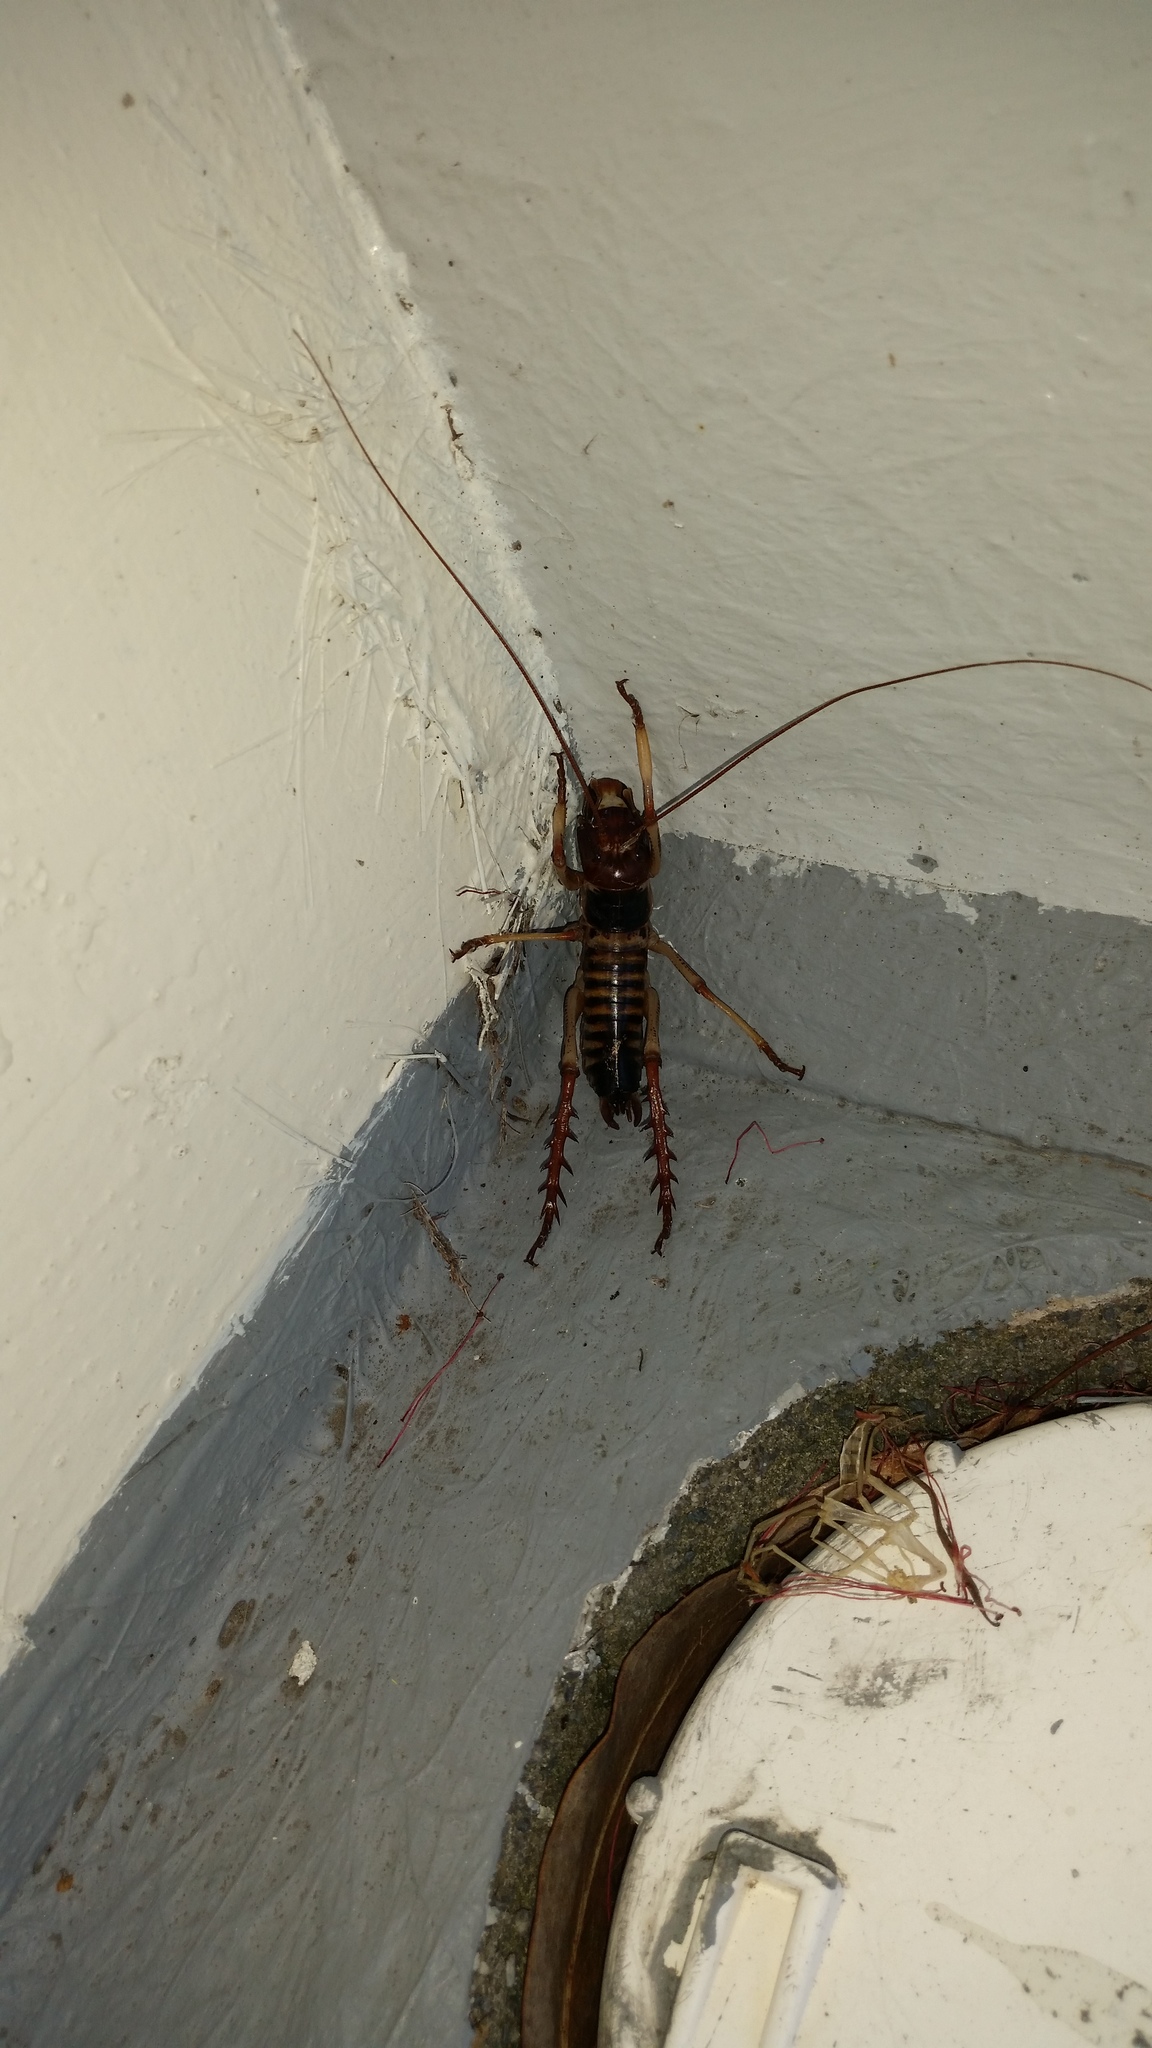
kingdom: Animalia
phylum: Arthropoda
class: Insecta
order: Orthoptera
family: Anostostomatidae
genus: Hemideina
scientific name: Hemideina crassidens
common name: Wellington tree weta
